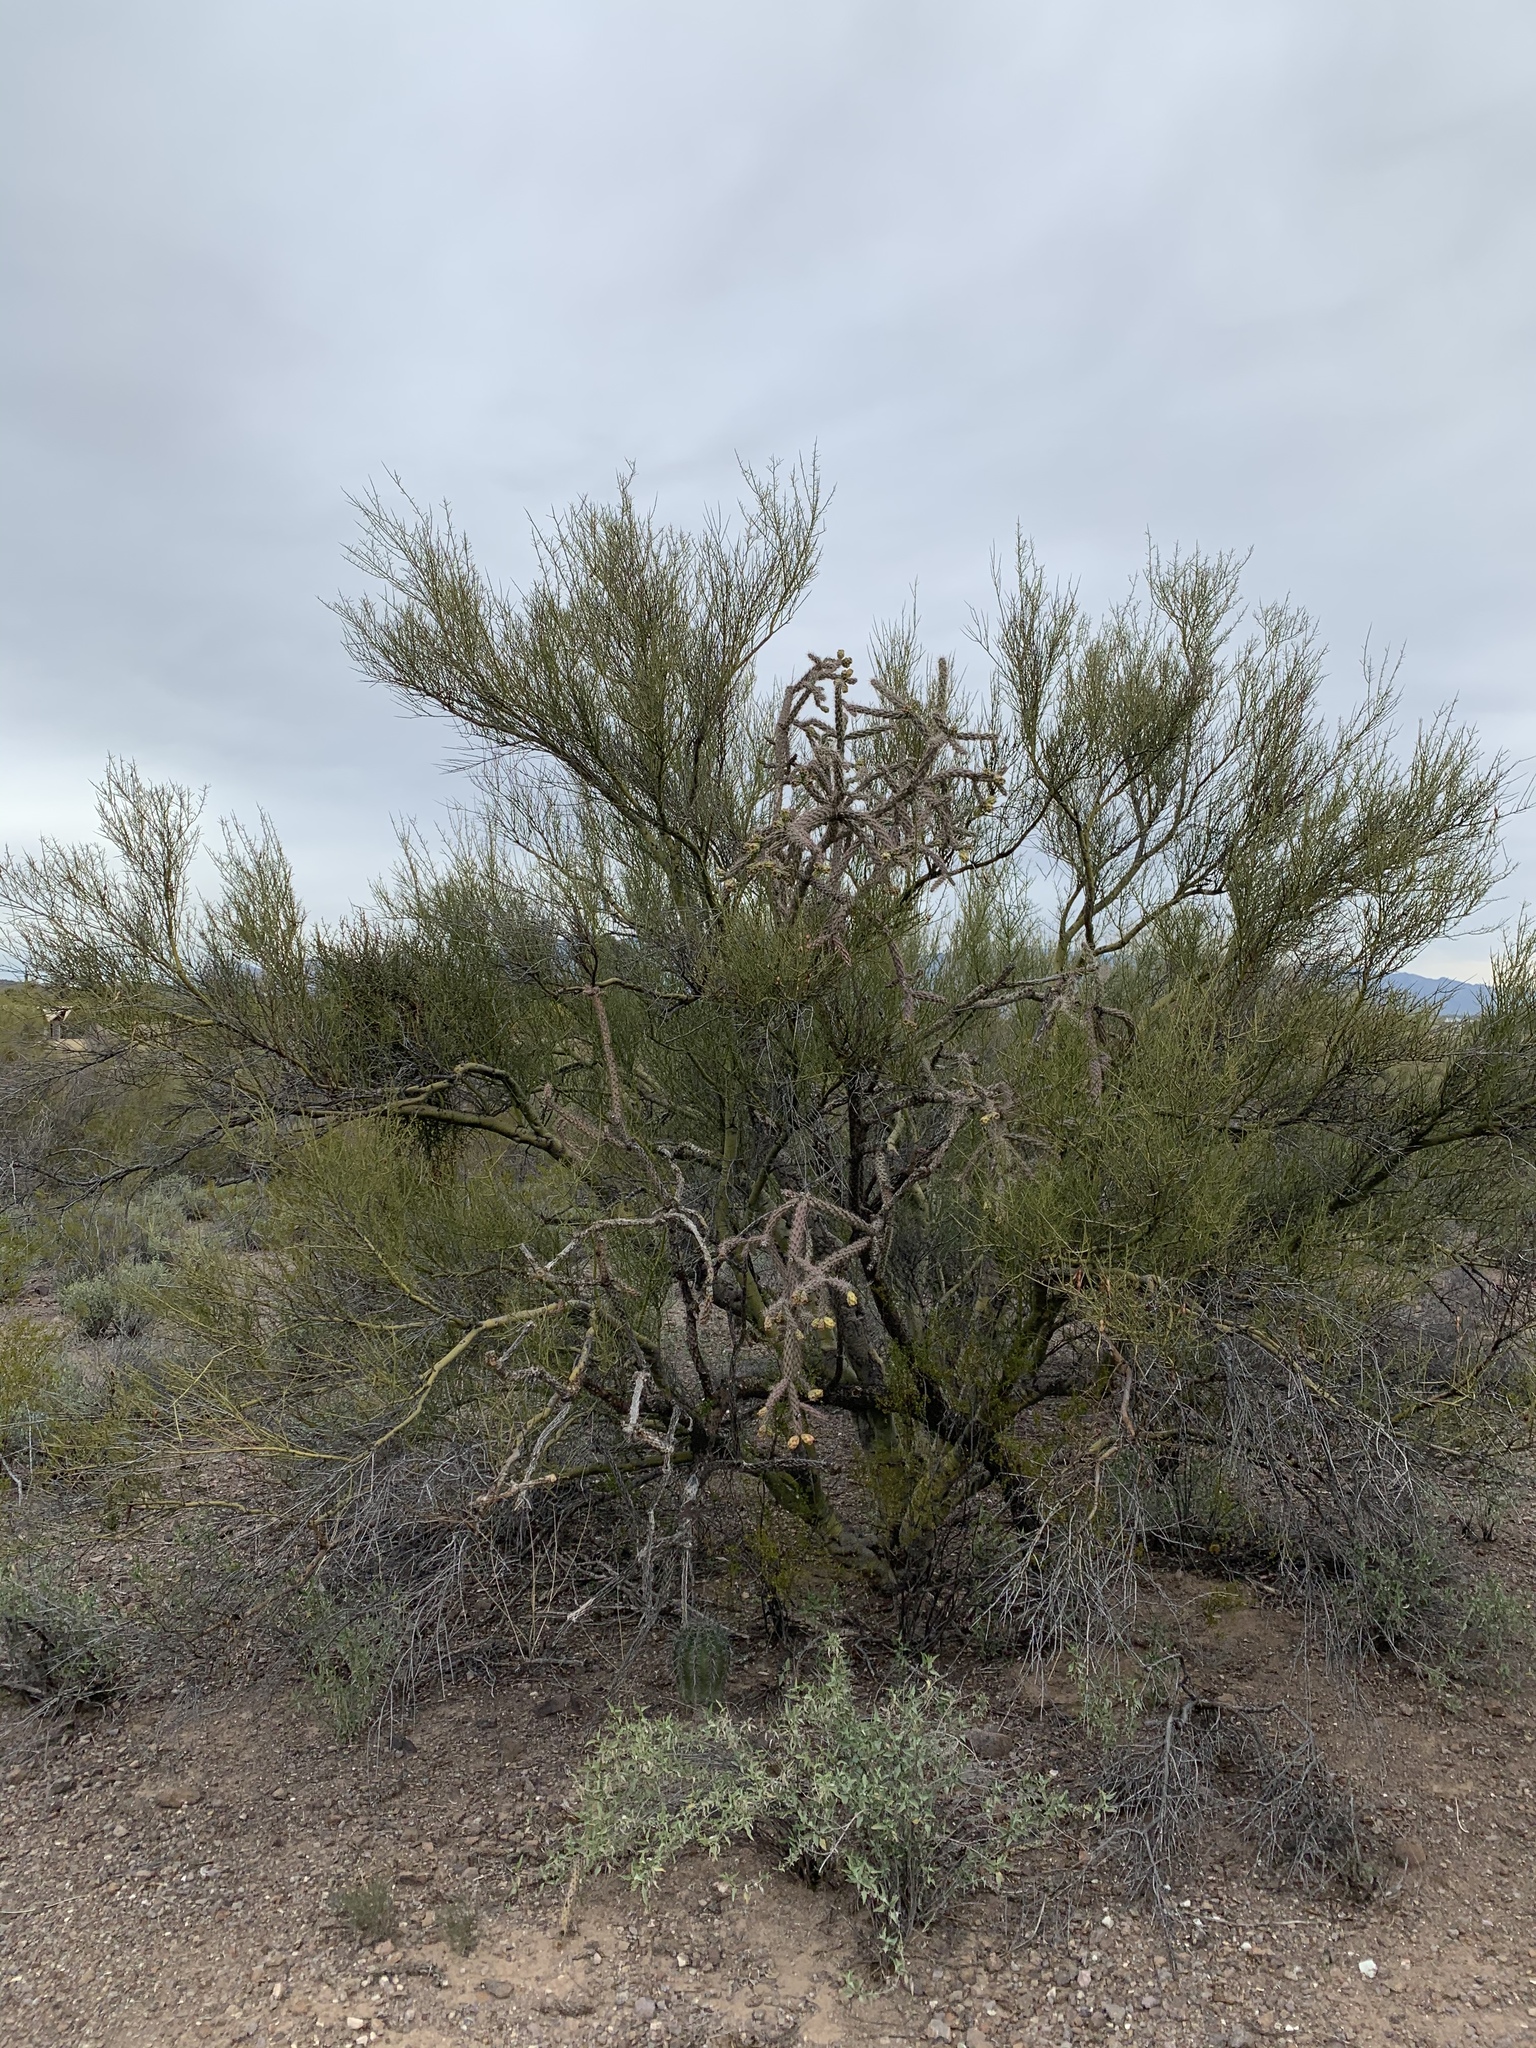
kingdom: Plantae
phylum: Tracheophyta
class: Magnoliopsida
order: Fabales
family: Fabaceae
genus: Parkinsonia
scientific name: Parkinsonia microphylla
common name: Yellow paloverde
